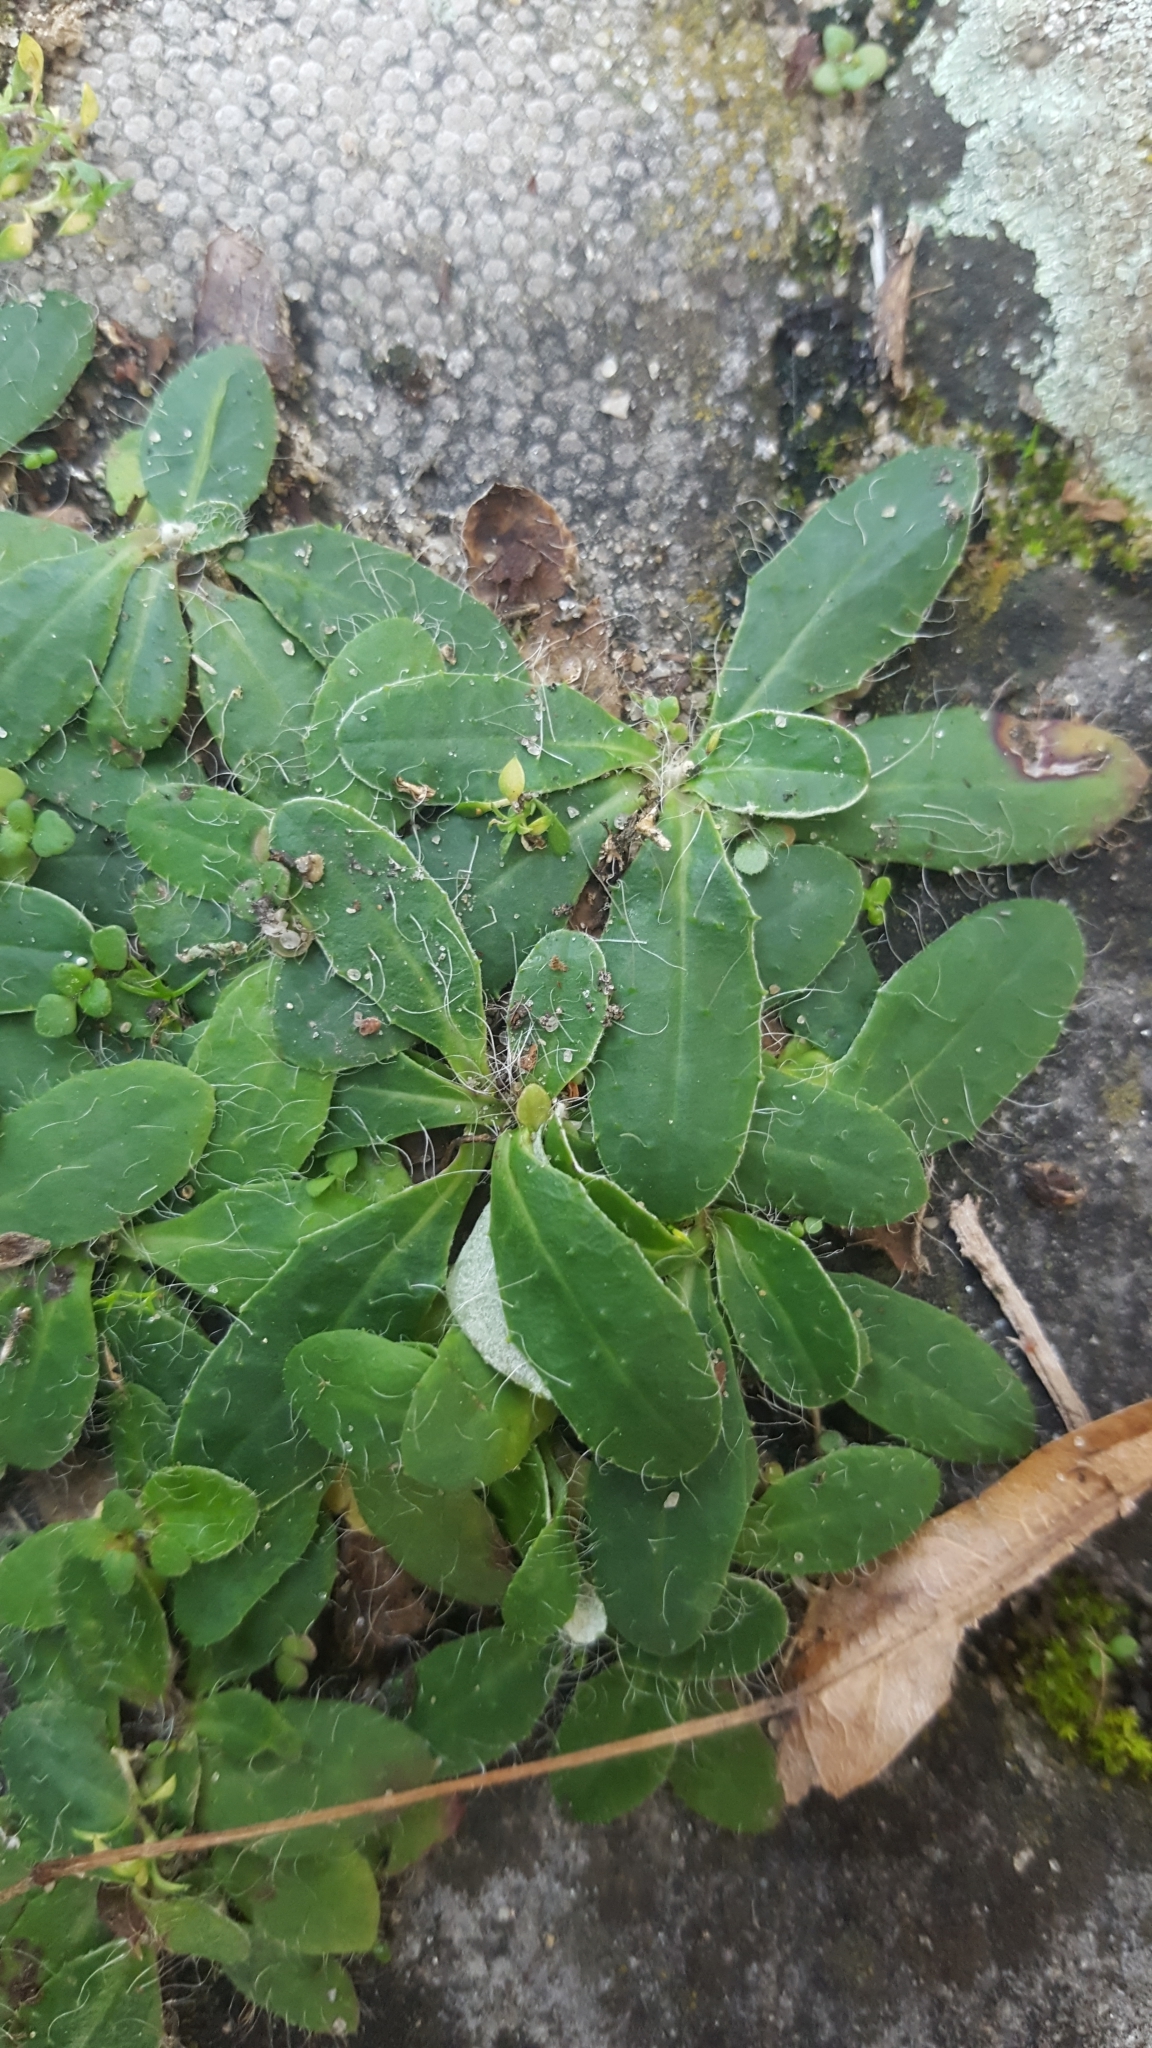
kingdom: Plantae
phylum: Tracheophyta
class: Magnoliopsida
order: Asterales
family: Asteraceae
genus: Pilosella
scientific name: Pilosella officinarum
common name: Mouse-ear hawkweed
